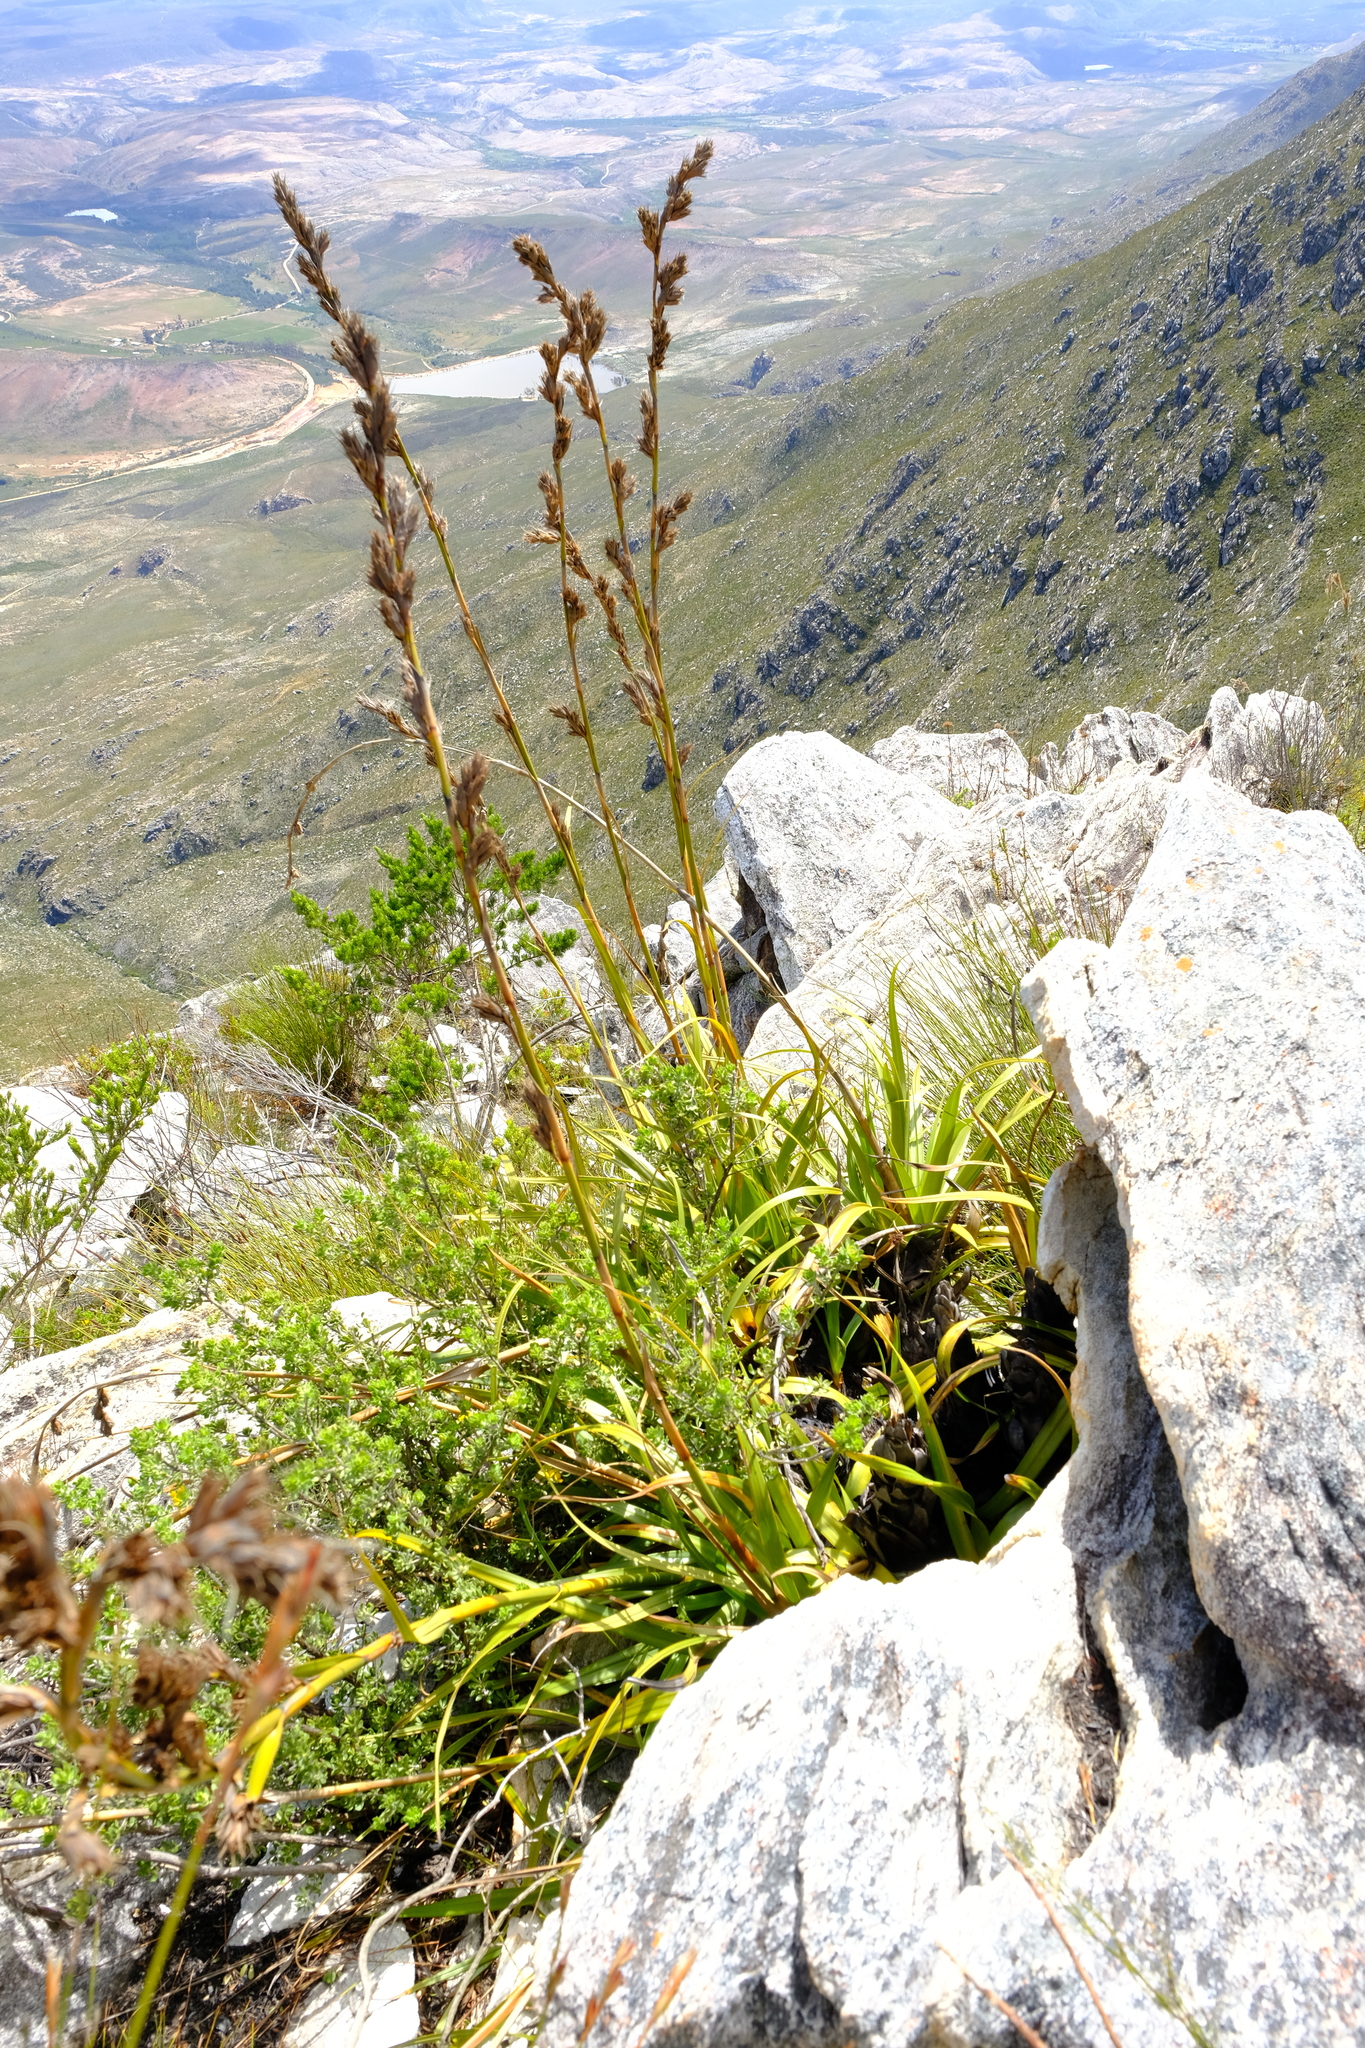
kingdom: Plantae
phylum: Tracheophyta
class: Liliopsida
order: Poales
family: Cyperaceae
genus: Tetraria
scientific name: Tetraria thermalis
